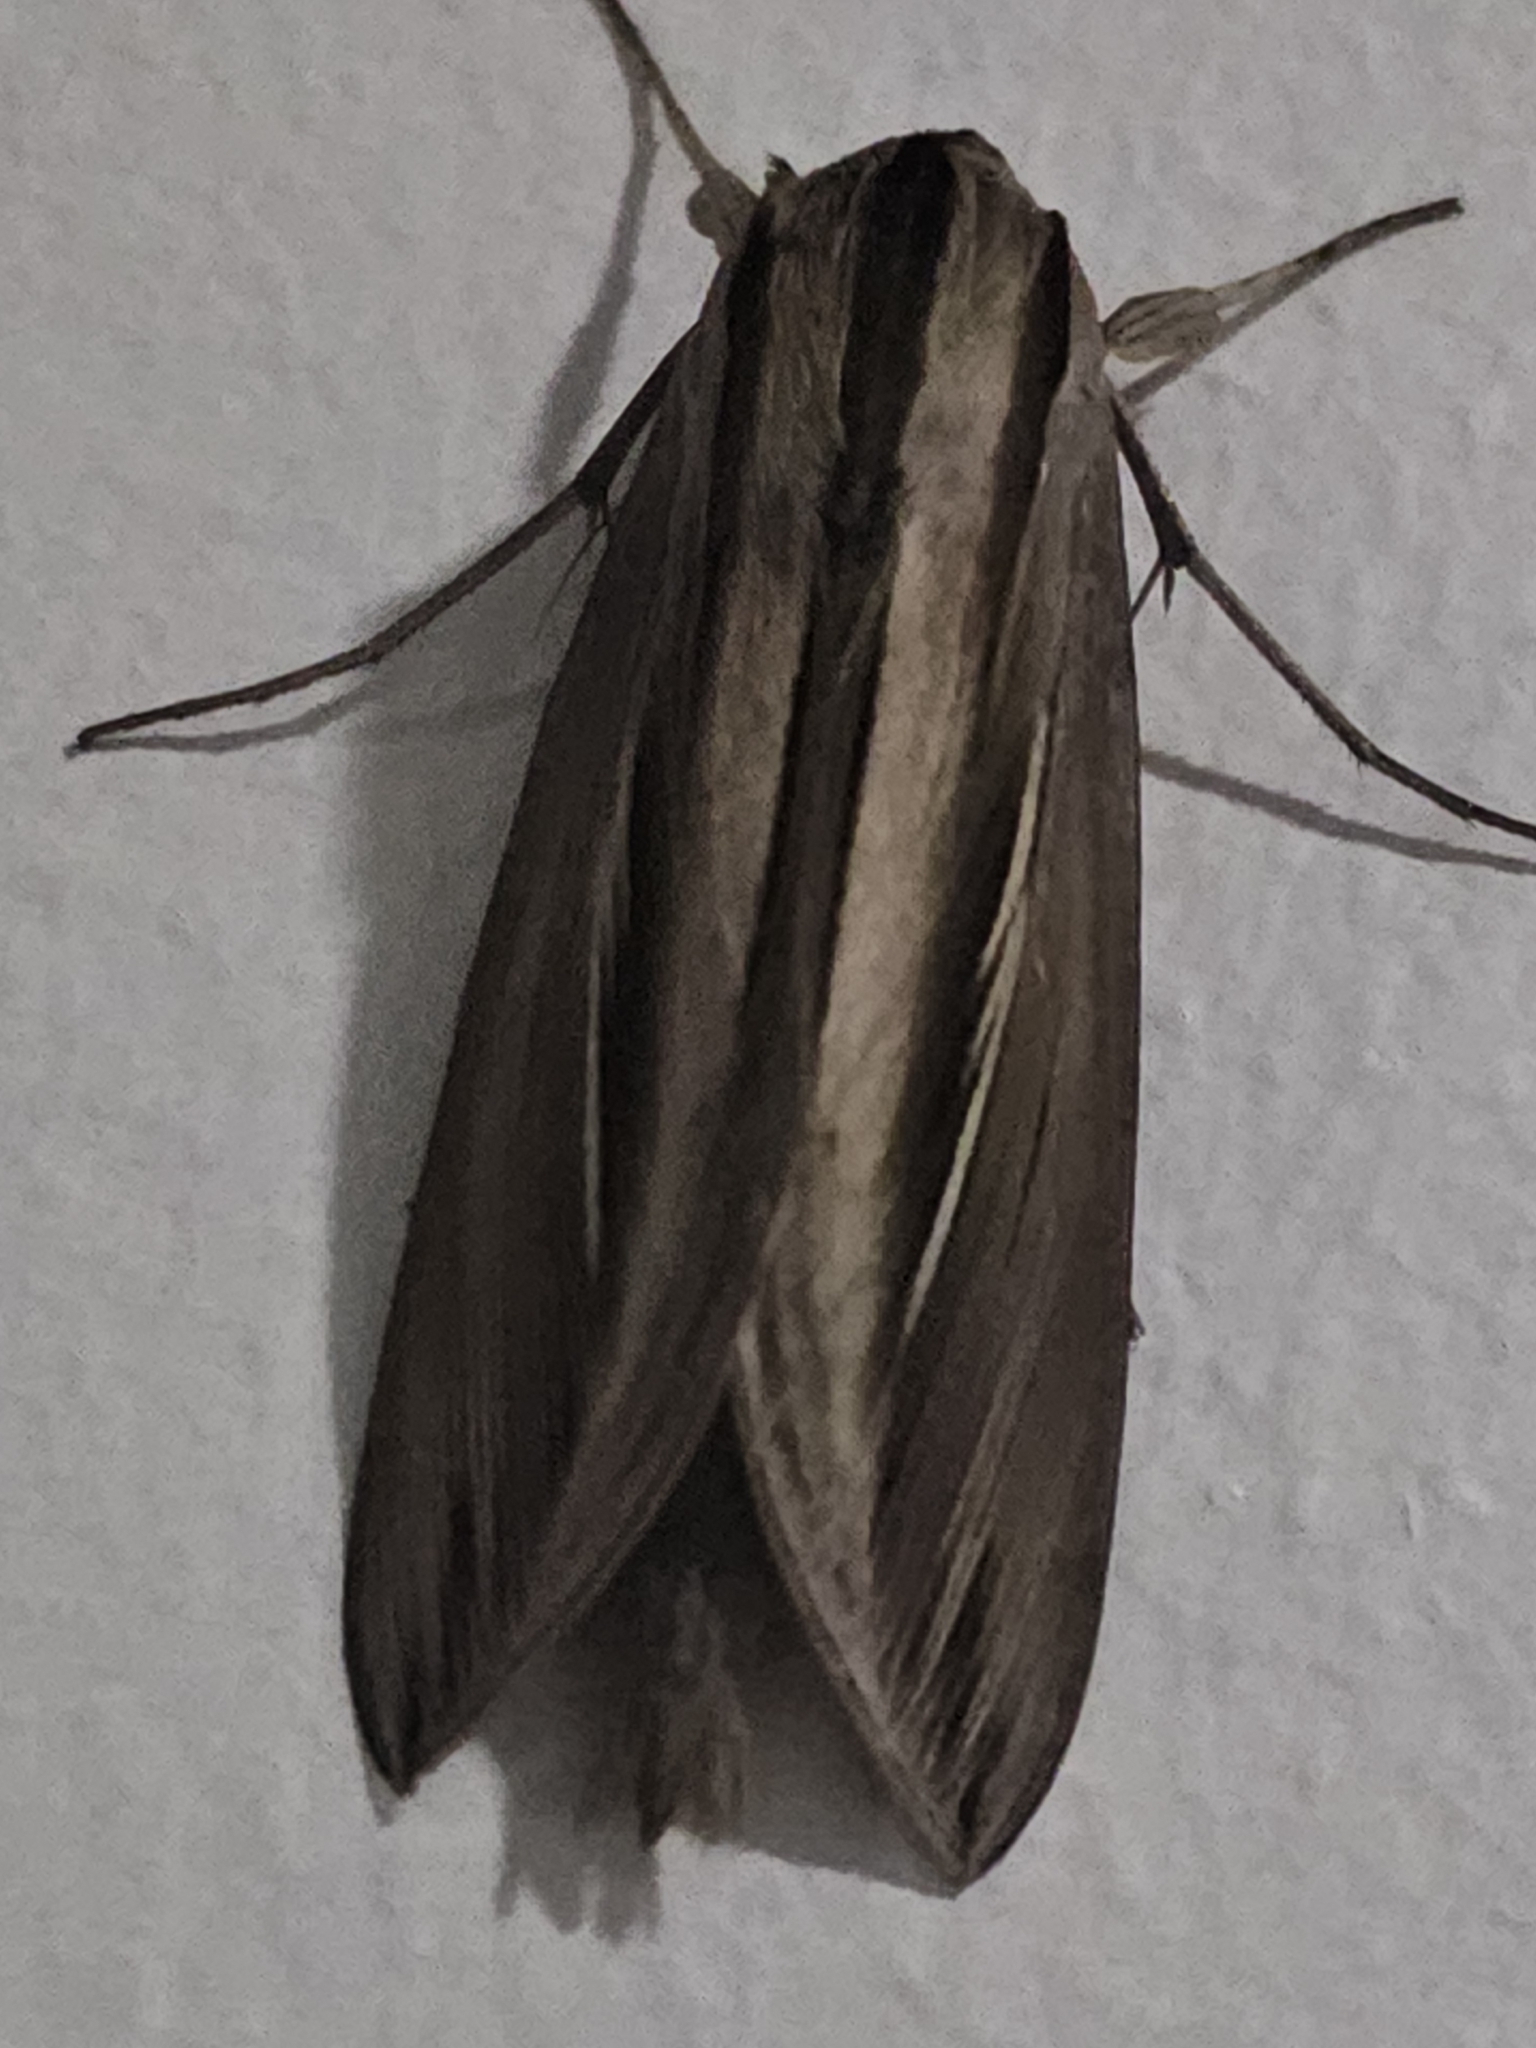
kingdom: Animalia
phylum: Arthropoda
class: Insecta
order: Lepidoptera
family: Sphingidae
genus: Phryxus
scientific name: Phryxus caicus
